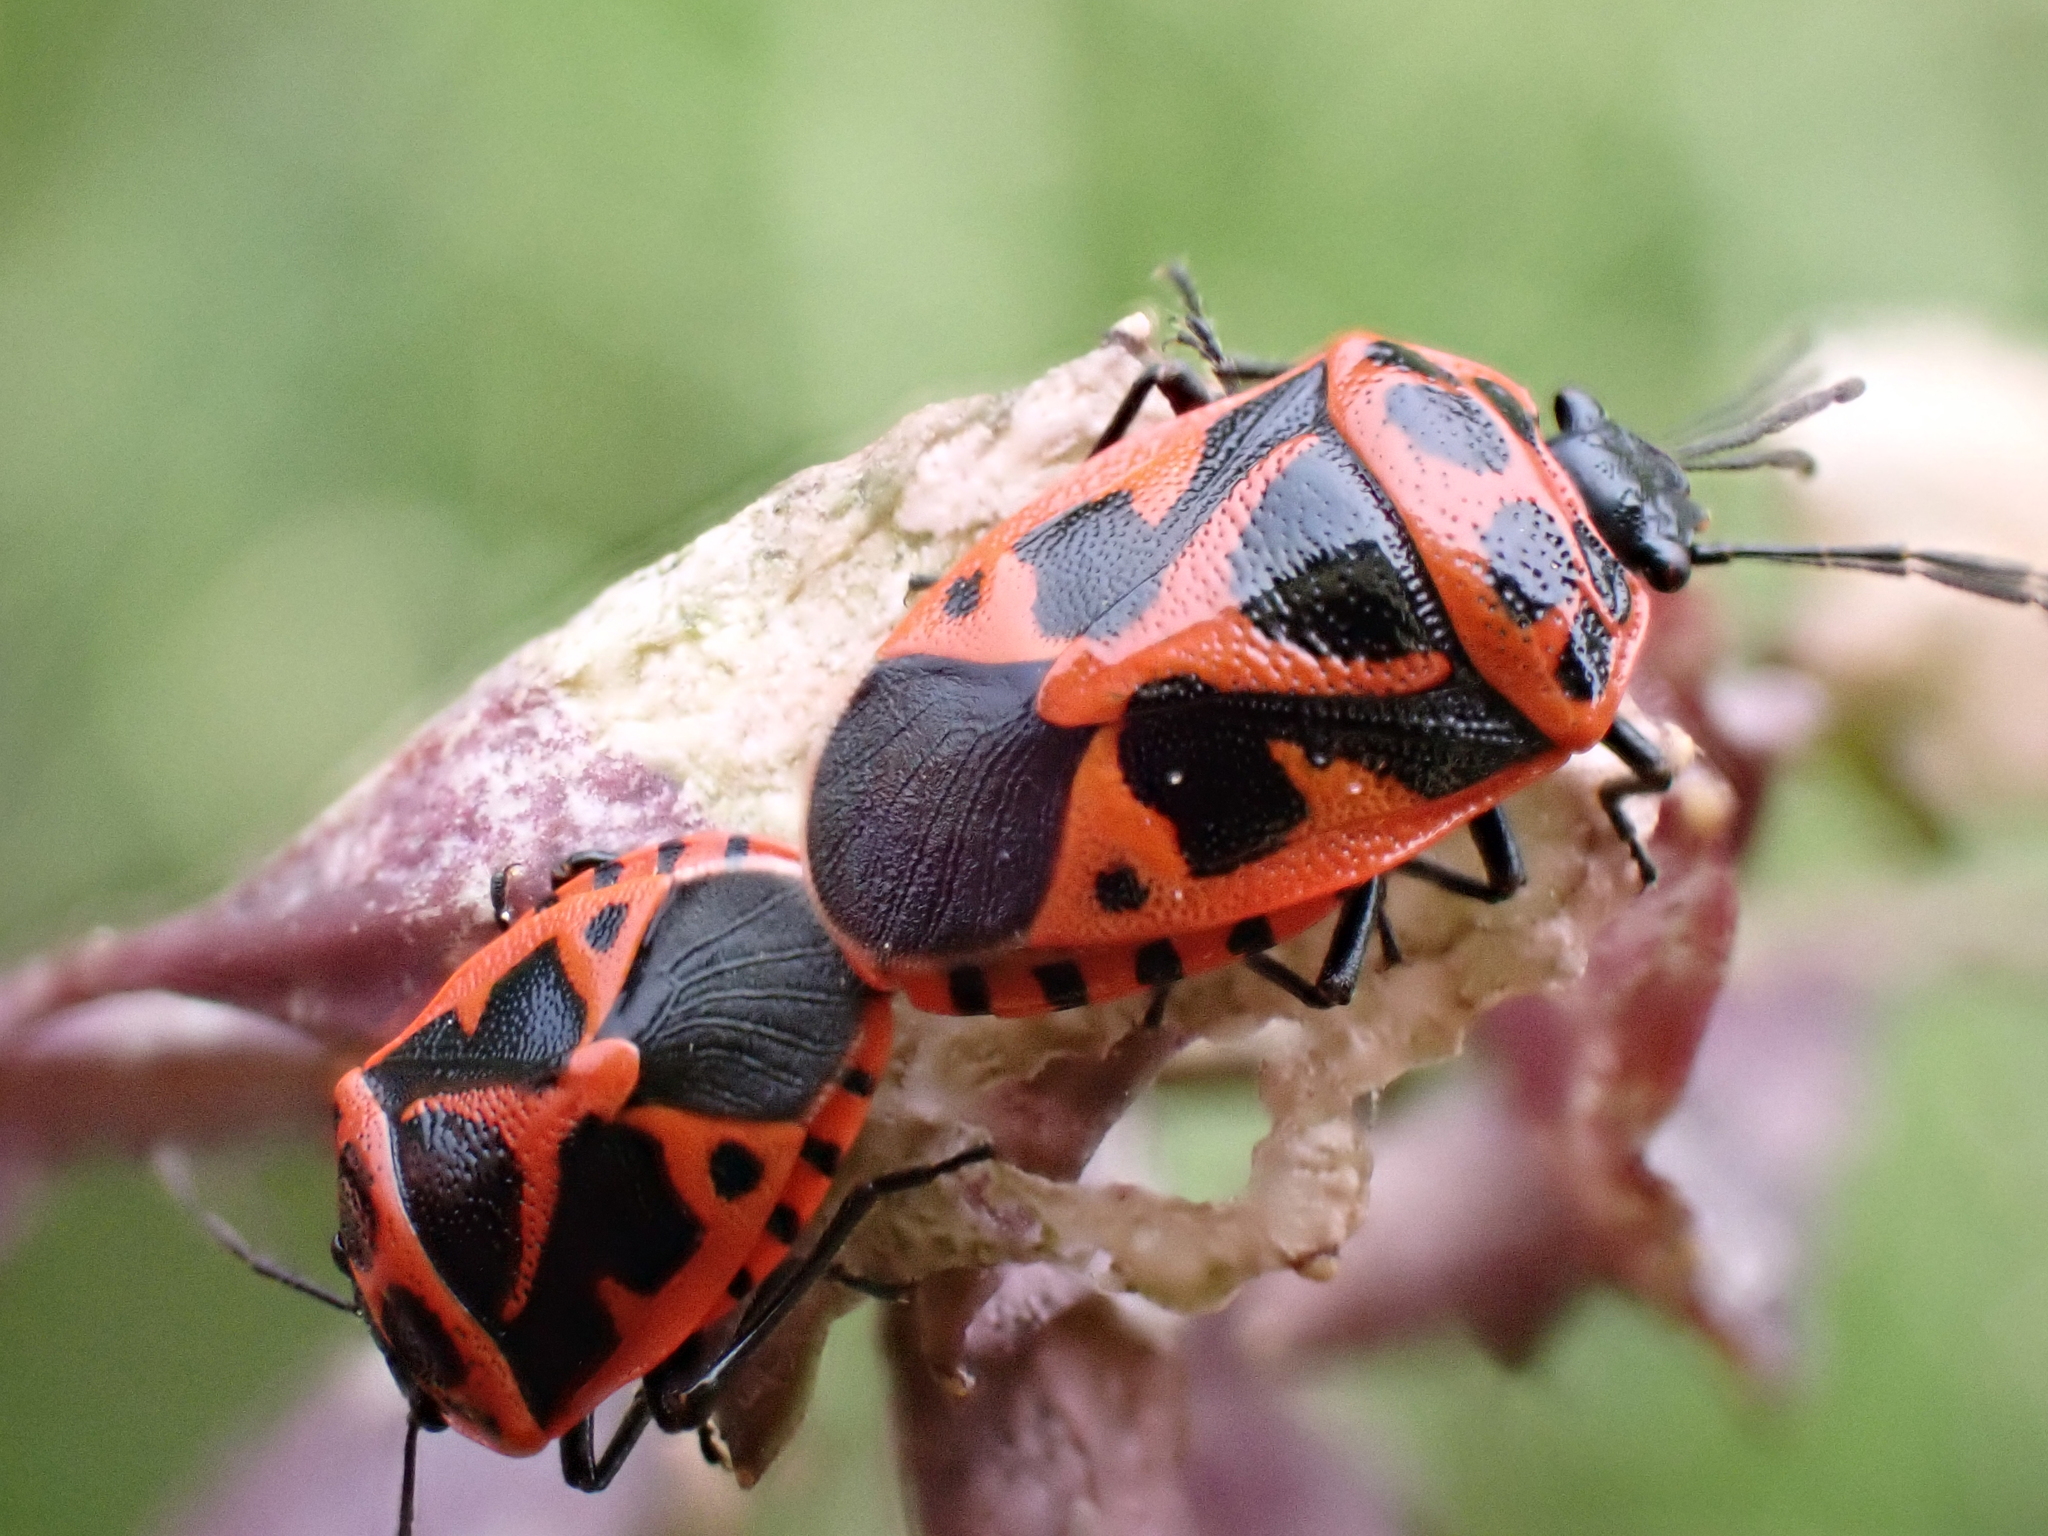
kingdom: Animalia
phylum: Arthropoda
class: Insecta
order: Hemiptera
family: Pentatomidae
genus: Eurydema
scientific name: Eurydema dominulus
